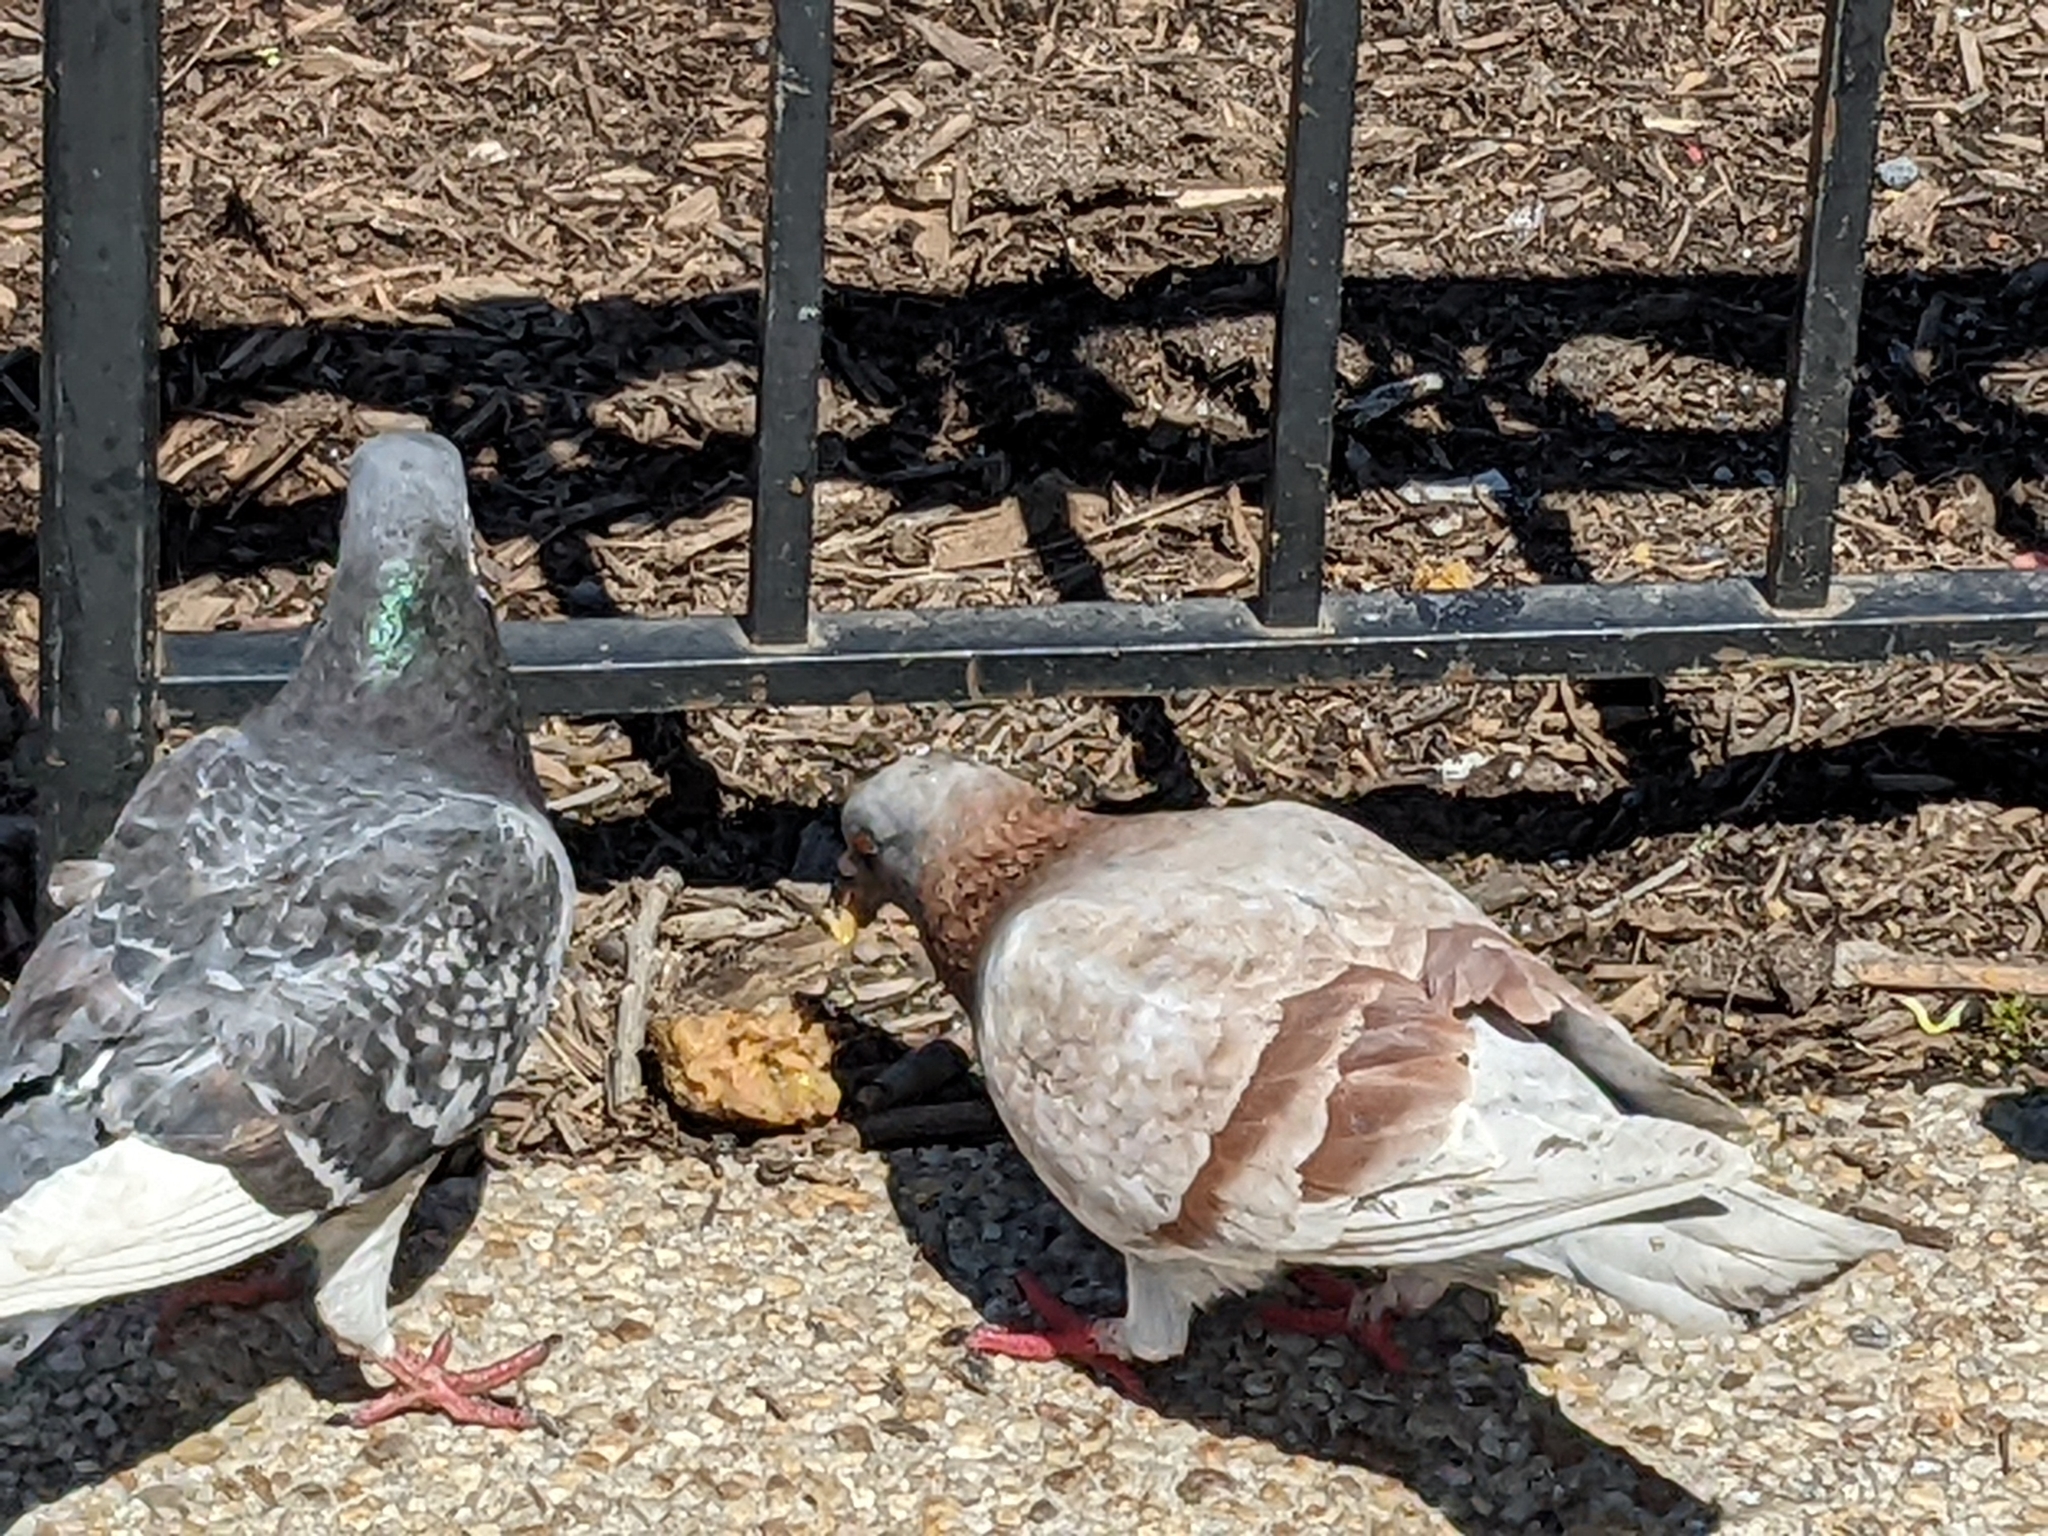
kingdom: Animalia
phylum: Chordata
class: Aves
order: Columbiformes
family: Columbidae
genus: Columba
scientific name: Columba livia
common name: Rock pigeon
